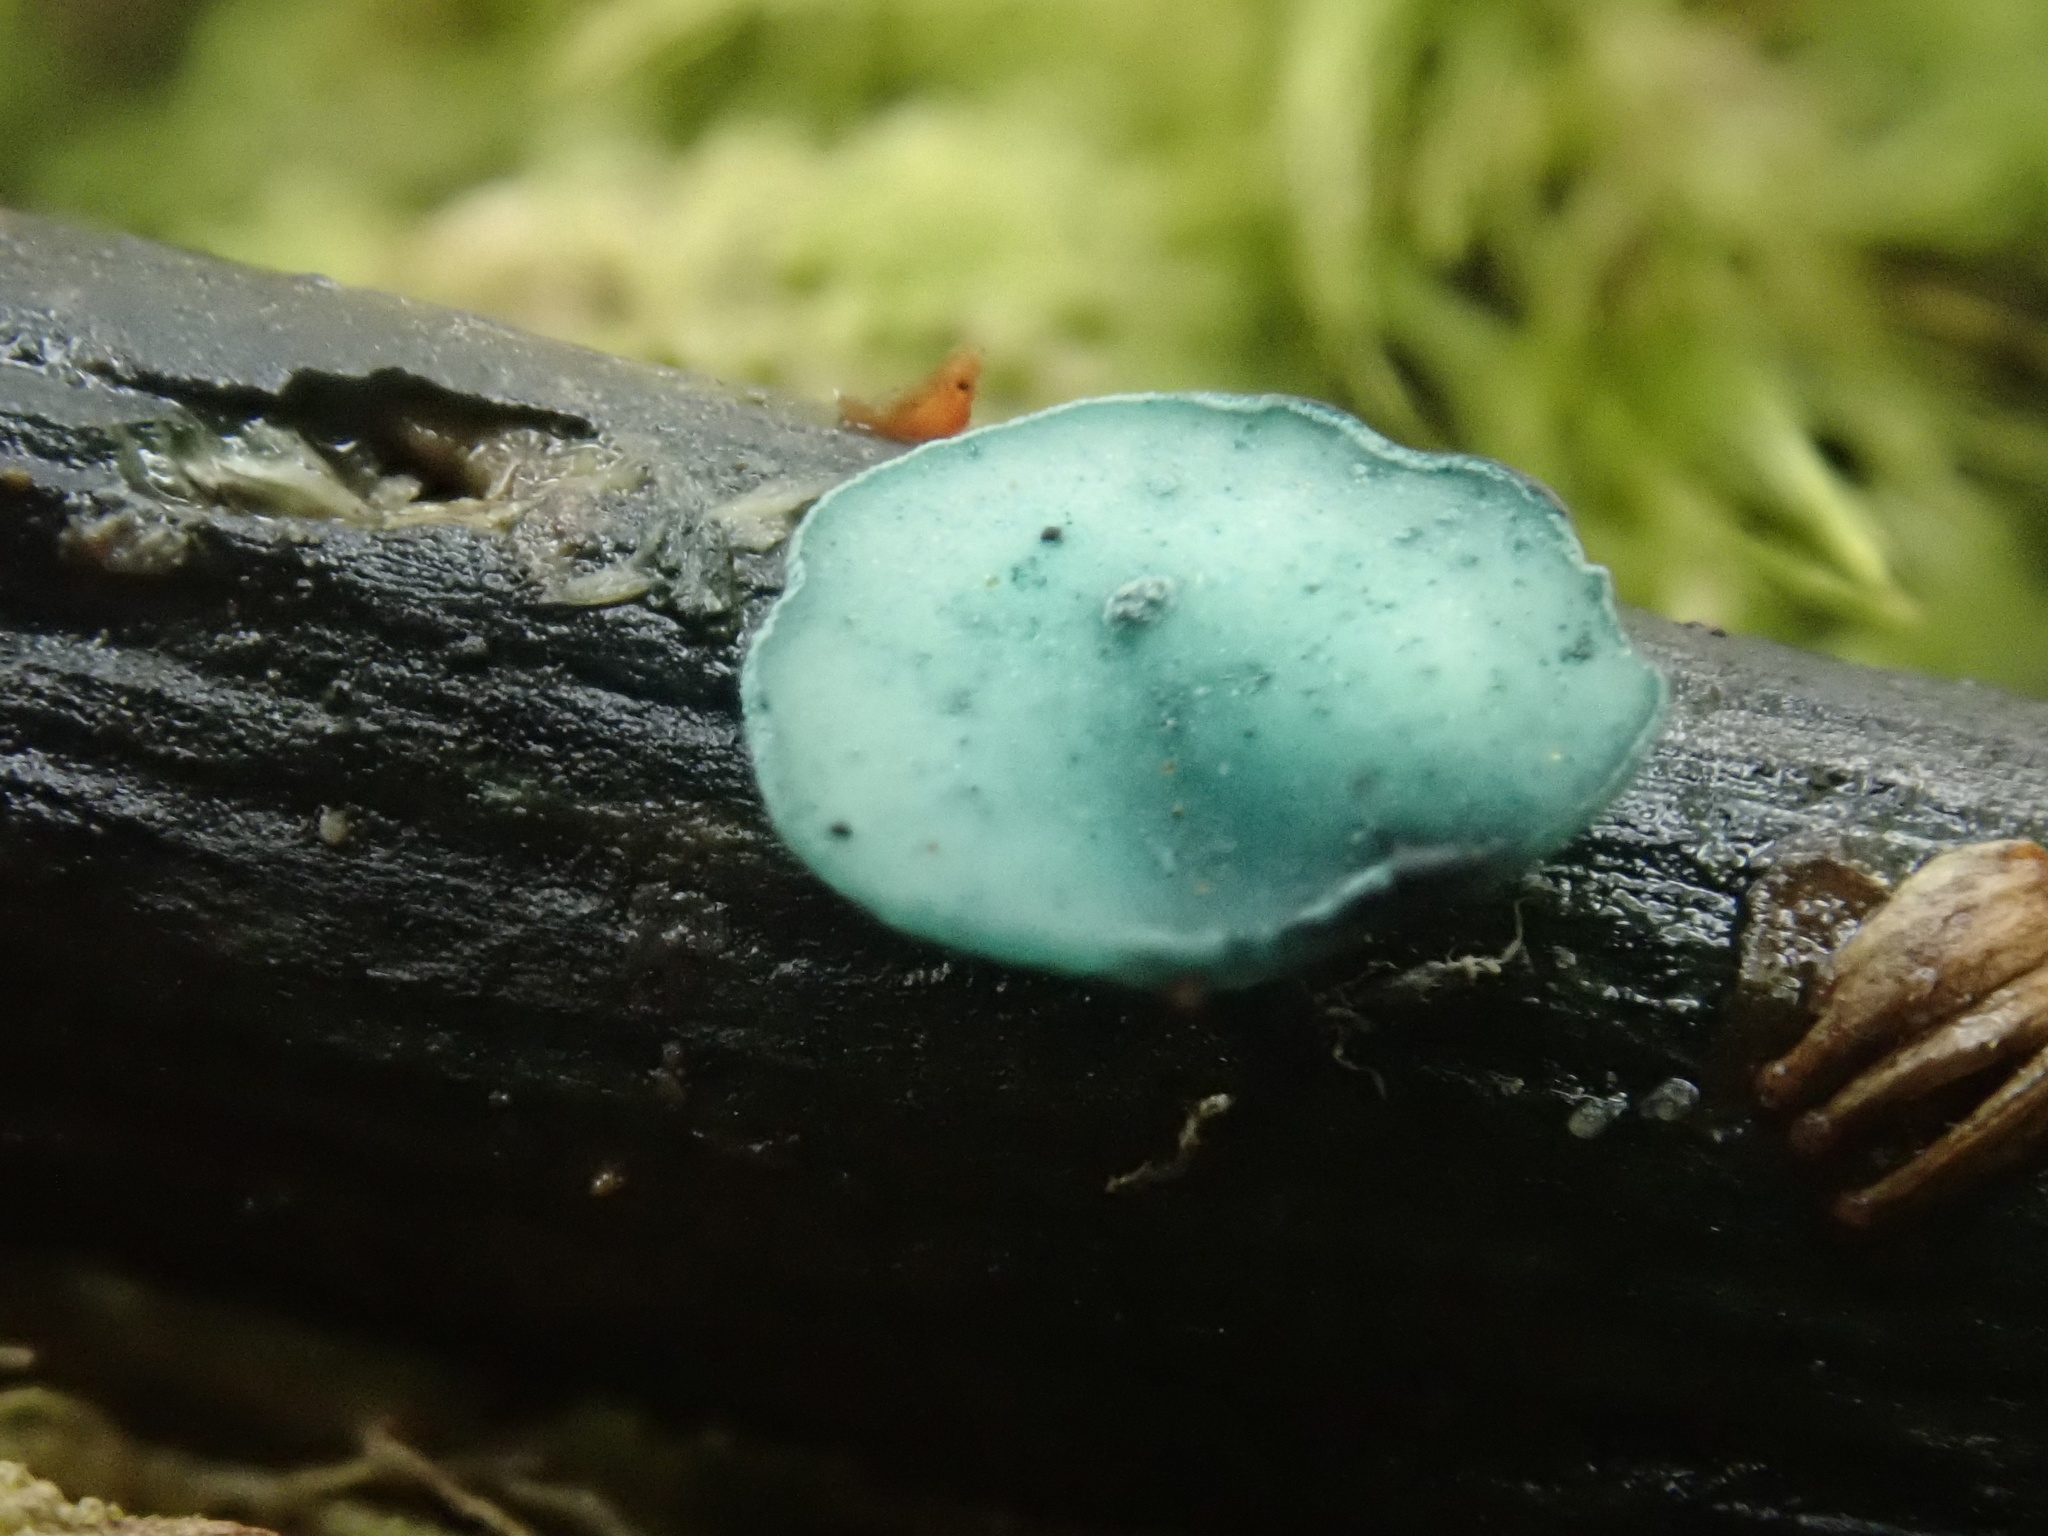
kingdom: Fungi
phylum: Ascomycota
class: Leotiomycetes
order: Helotiales
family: Chlorociboriaceae
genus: Chlorociboria
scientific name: Chlorociboria
